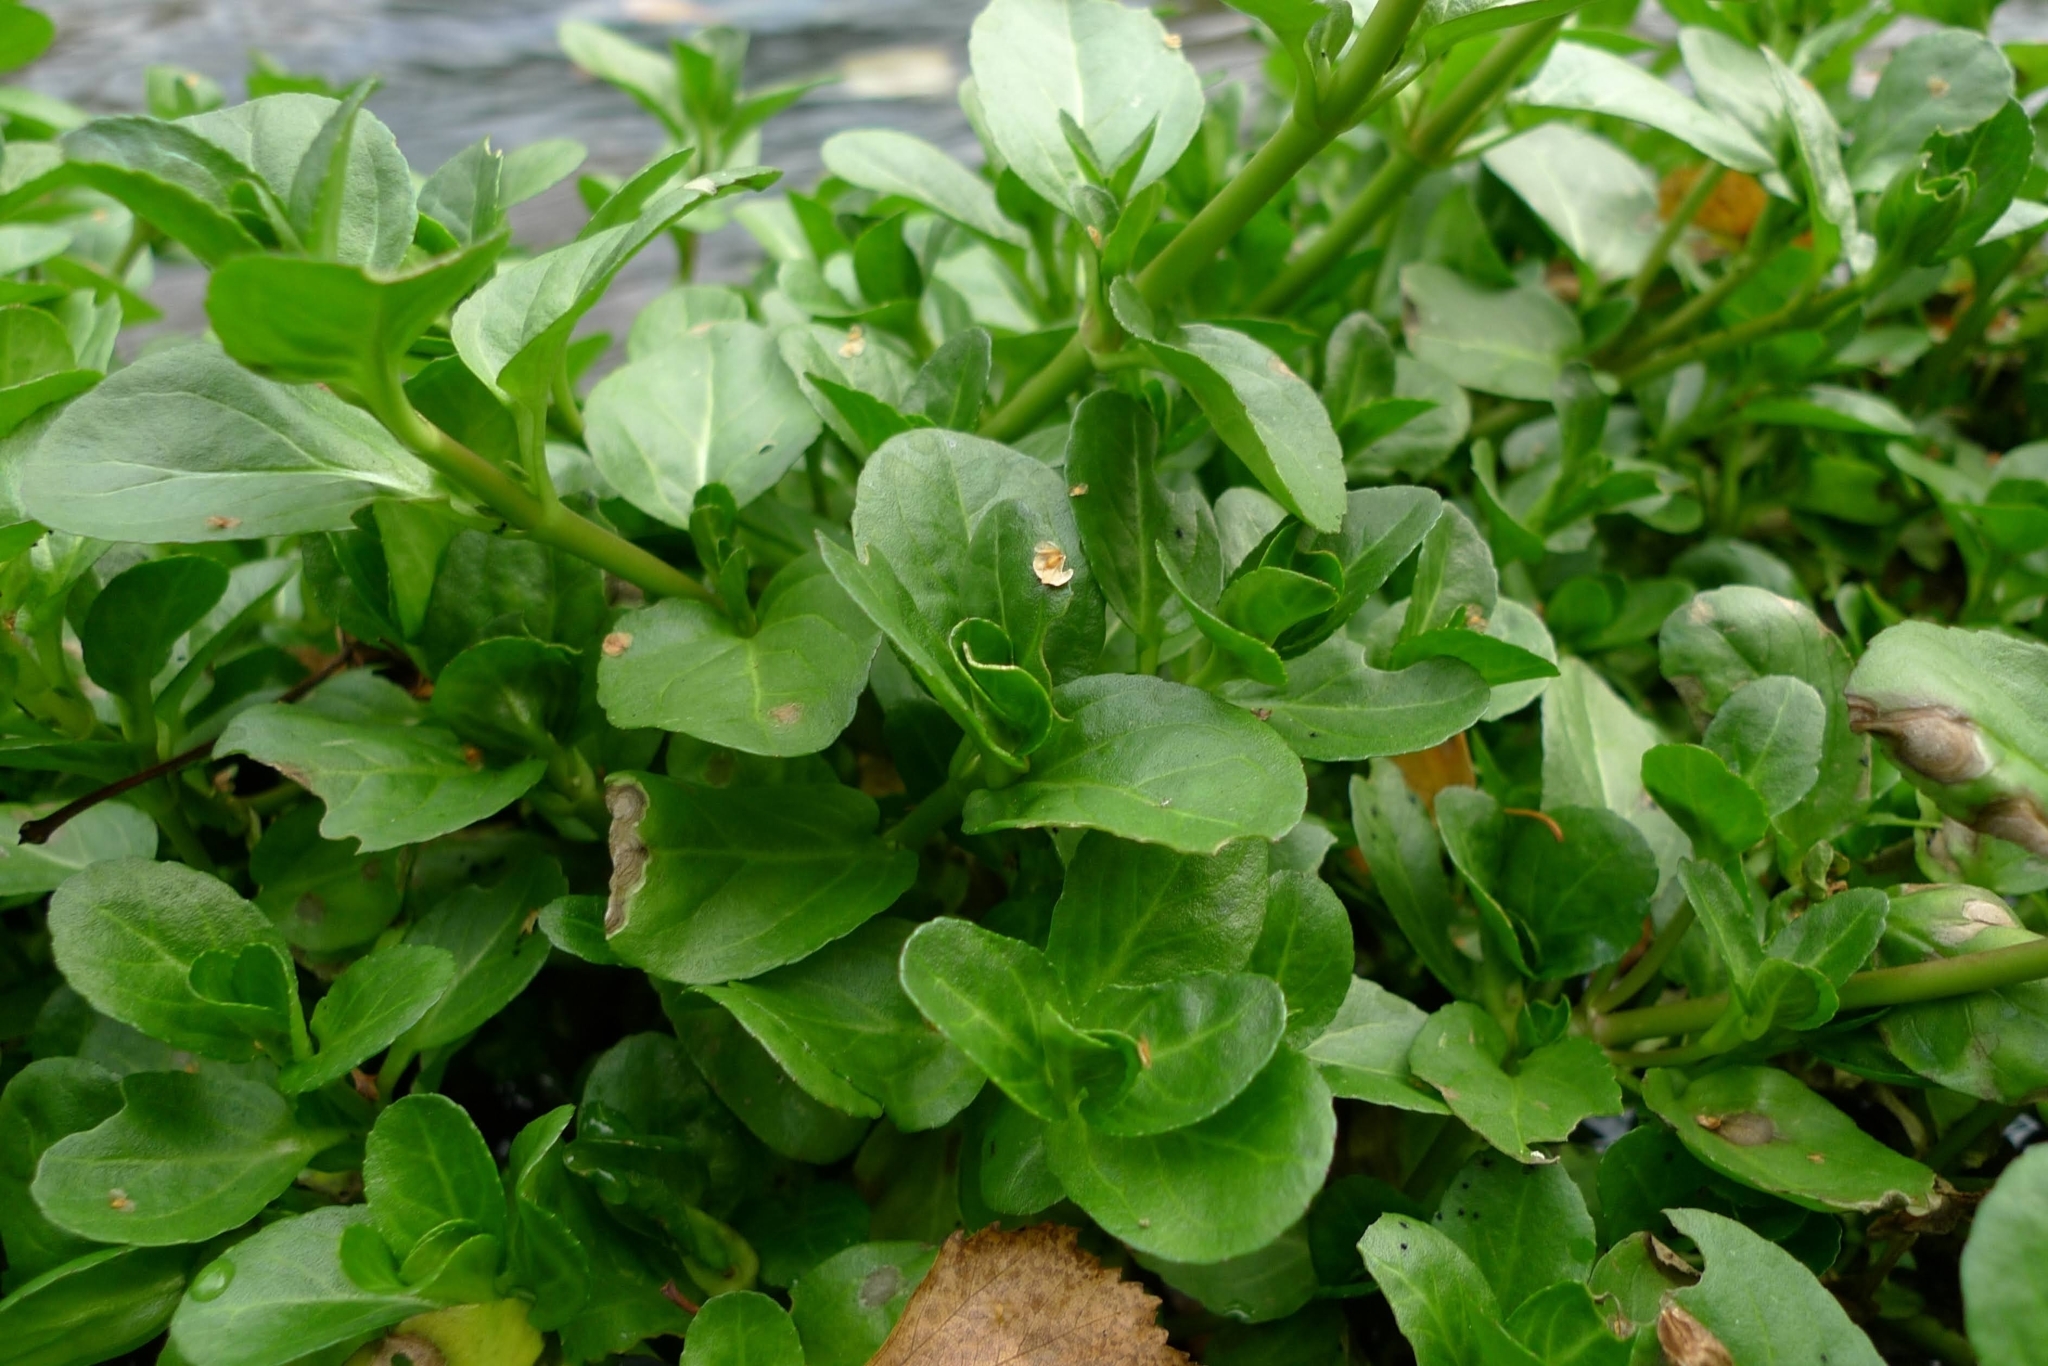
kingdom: Plantae
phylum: Tracheophyta
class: Magnoliopsida
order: Lamiales
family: Plantaginaceae
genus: Veronica
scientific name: Veronica beccabunga
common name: Brooklime
